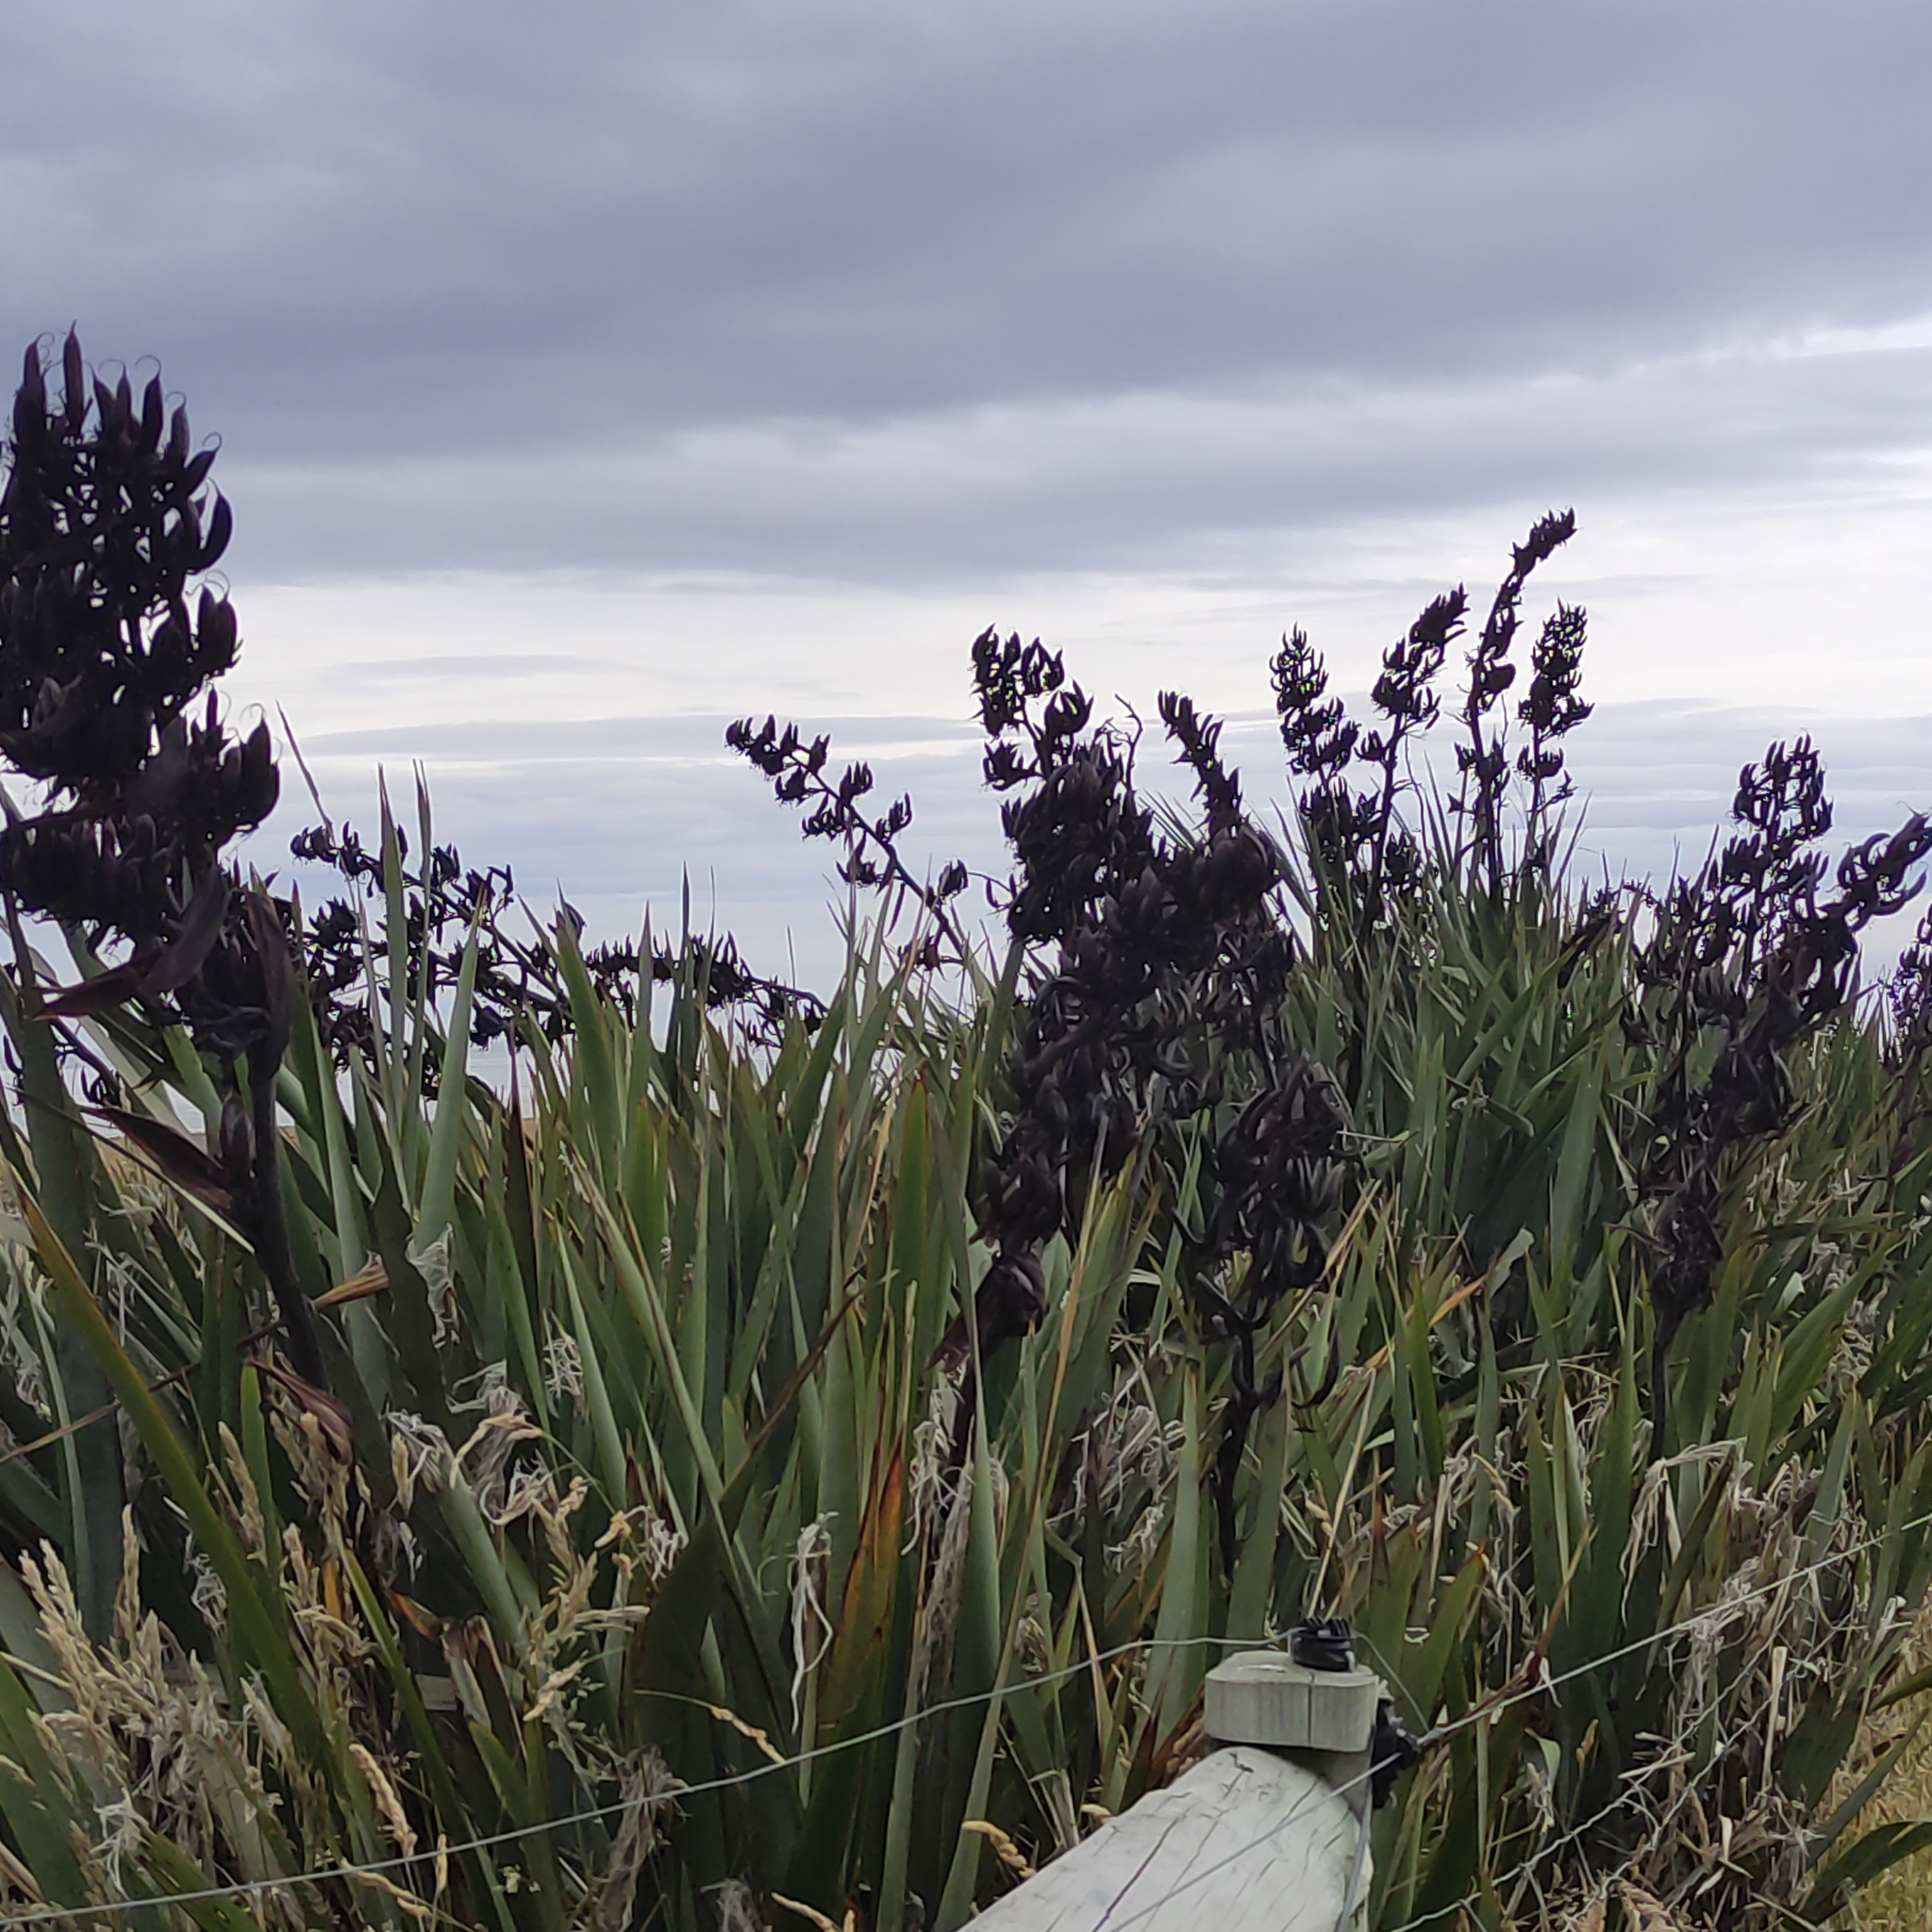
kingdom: Plantae
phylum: Tracheophyta
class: Liliopsida
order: Asparagales
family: Asphodelaceae
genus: Phormium
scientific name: Phormium tenax
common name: New zealand flax
